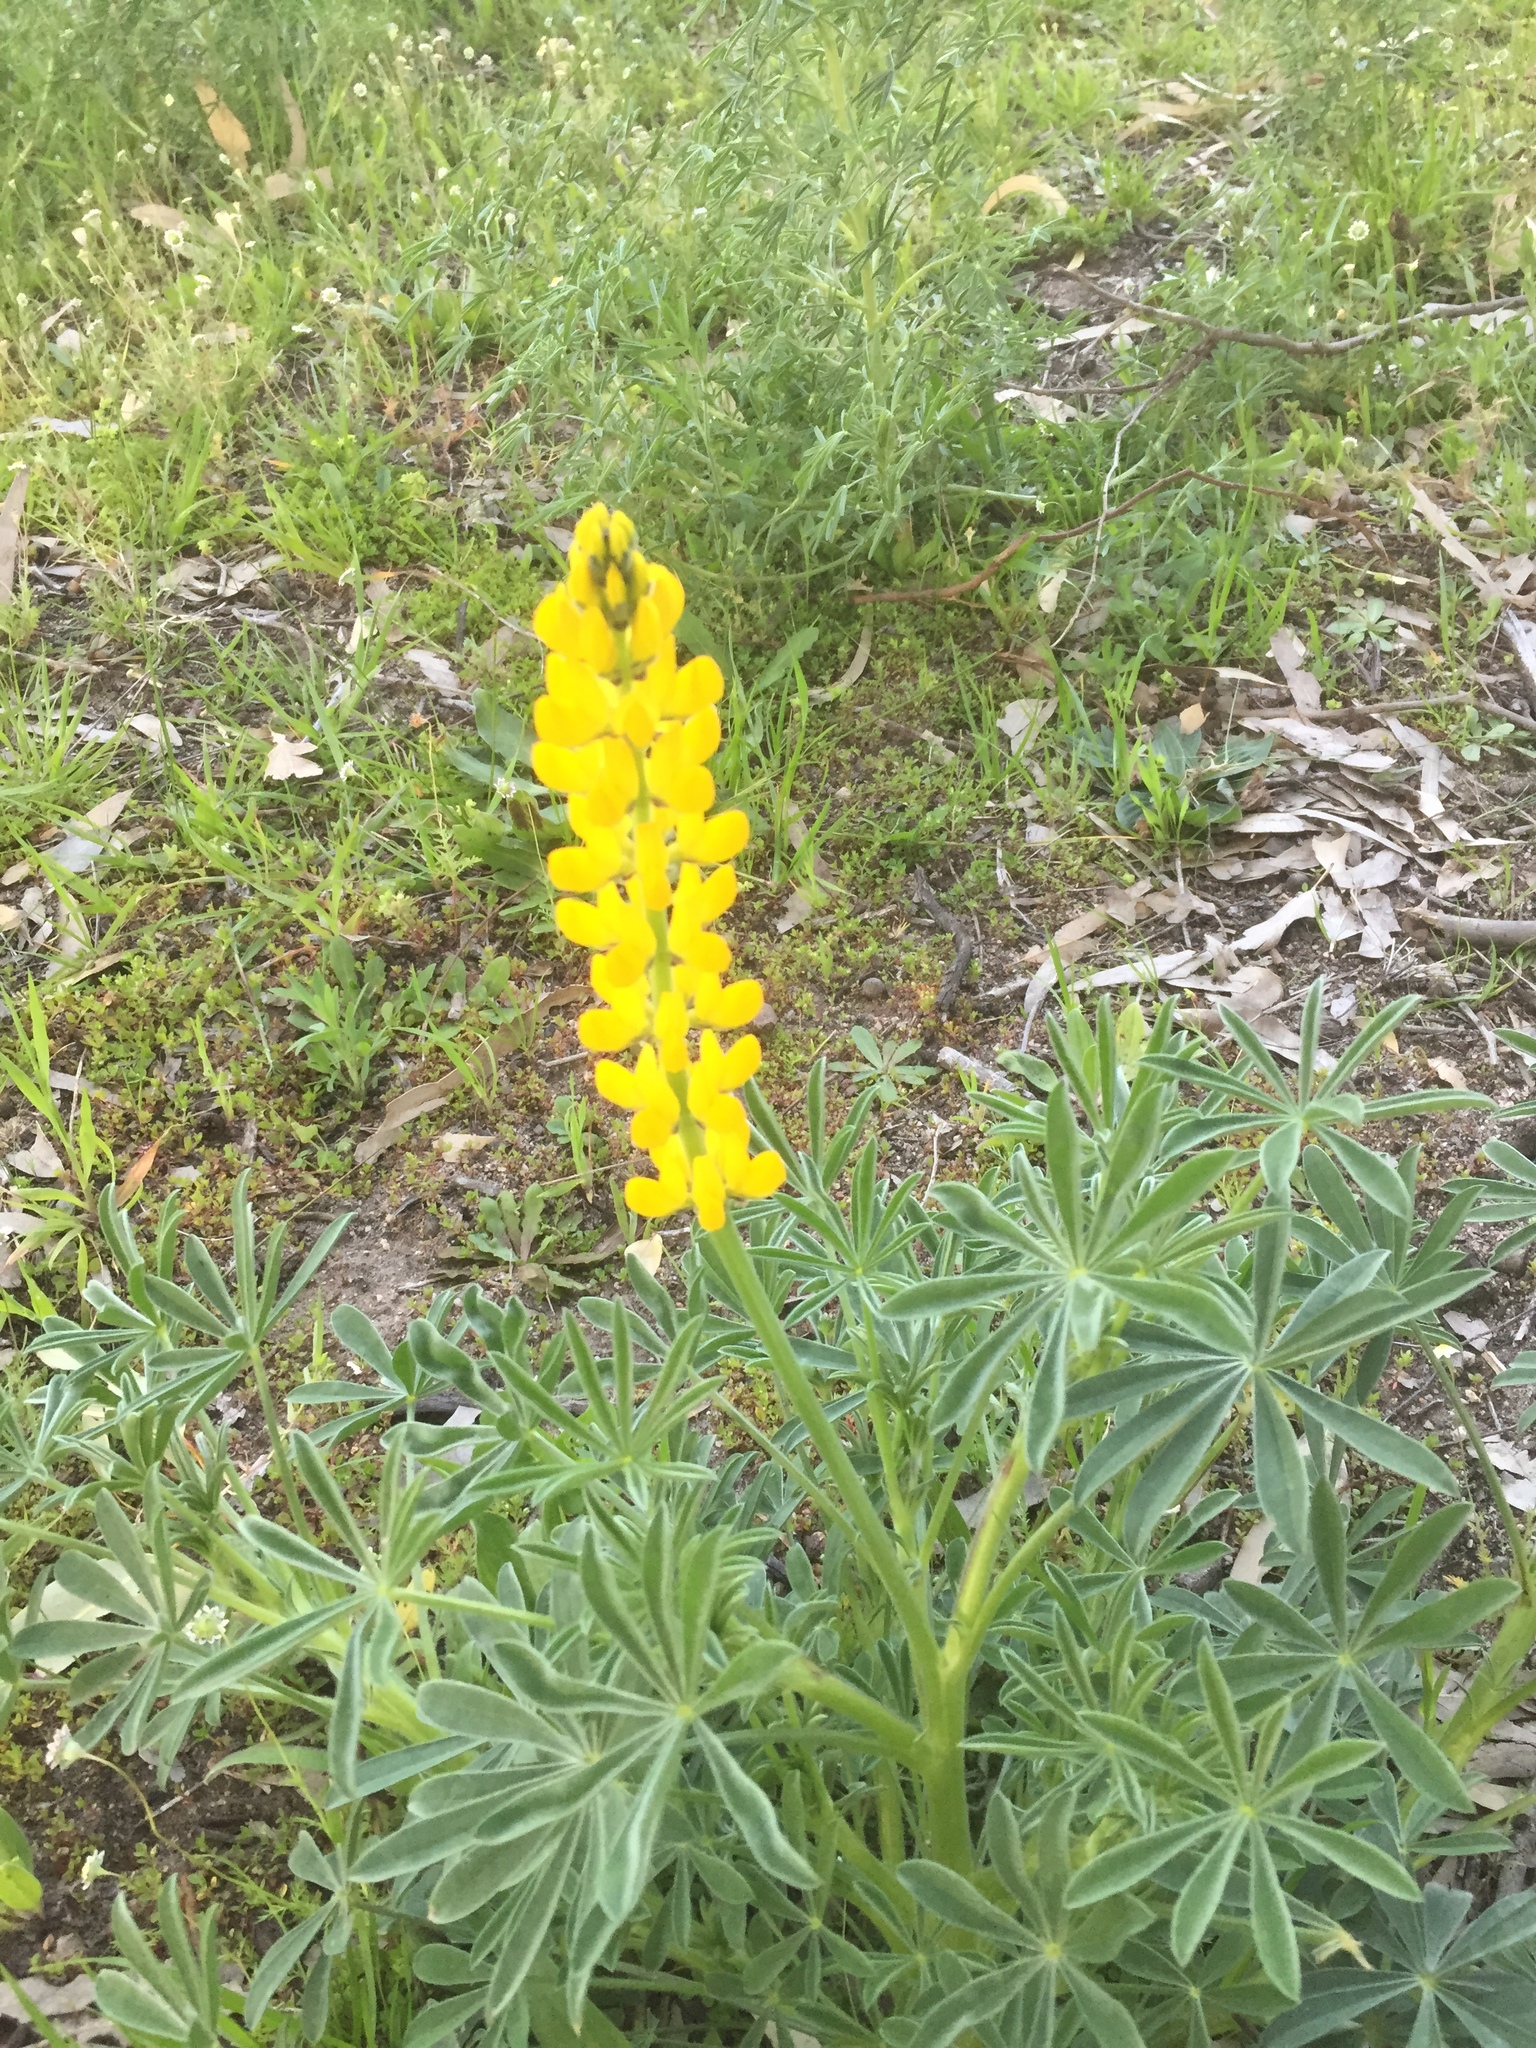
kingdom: Plantae
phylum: Tracheophyta
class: Magnoliopsida
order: Fabales
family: Fabaceae
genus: Lupinus
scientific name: Lupinus luteus
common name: European yellow lupine
